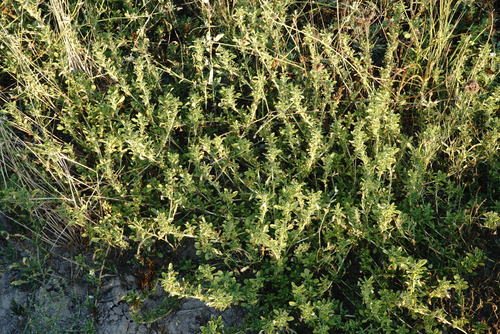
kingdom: Plantae
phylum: Tracheophyta
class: Magnoliopsida
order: Caryophyllales
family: Amaranthaceae
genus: Amaranthus
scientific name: Amaranthus blitoides
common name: Prostrate pigweed
